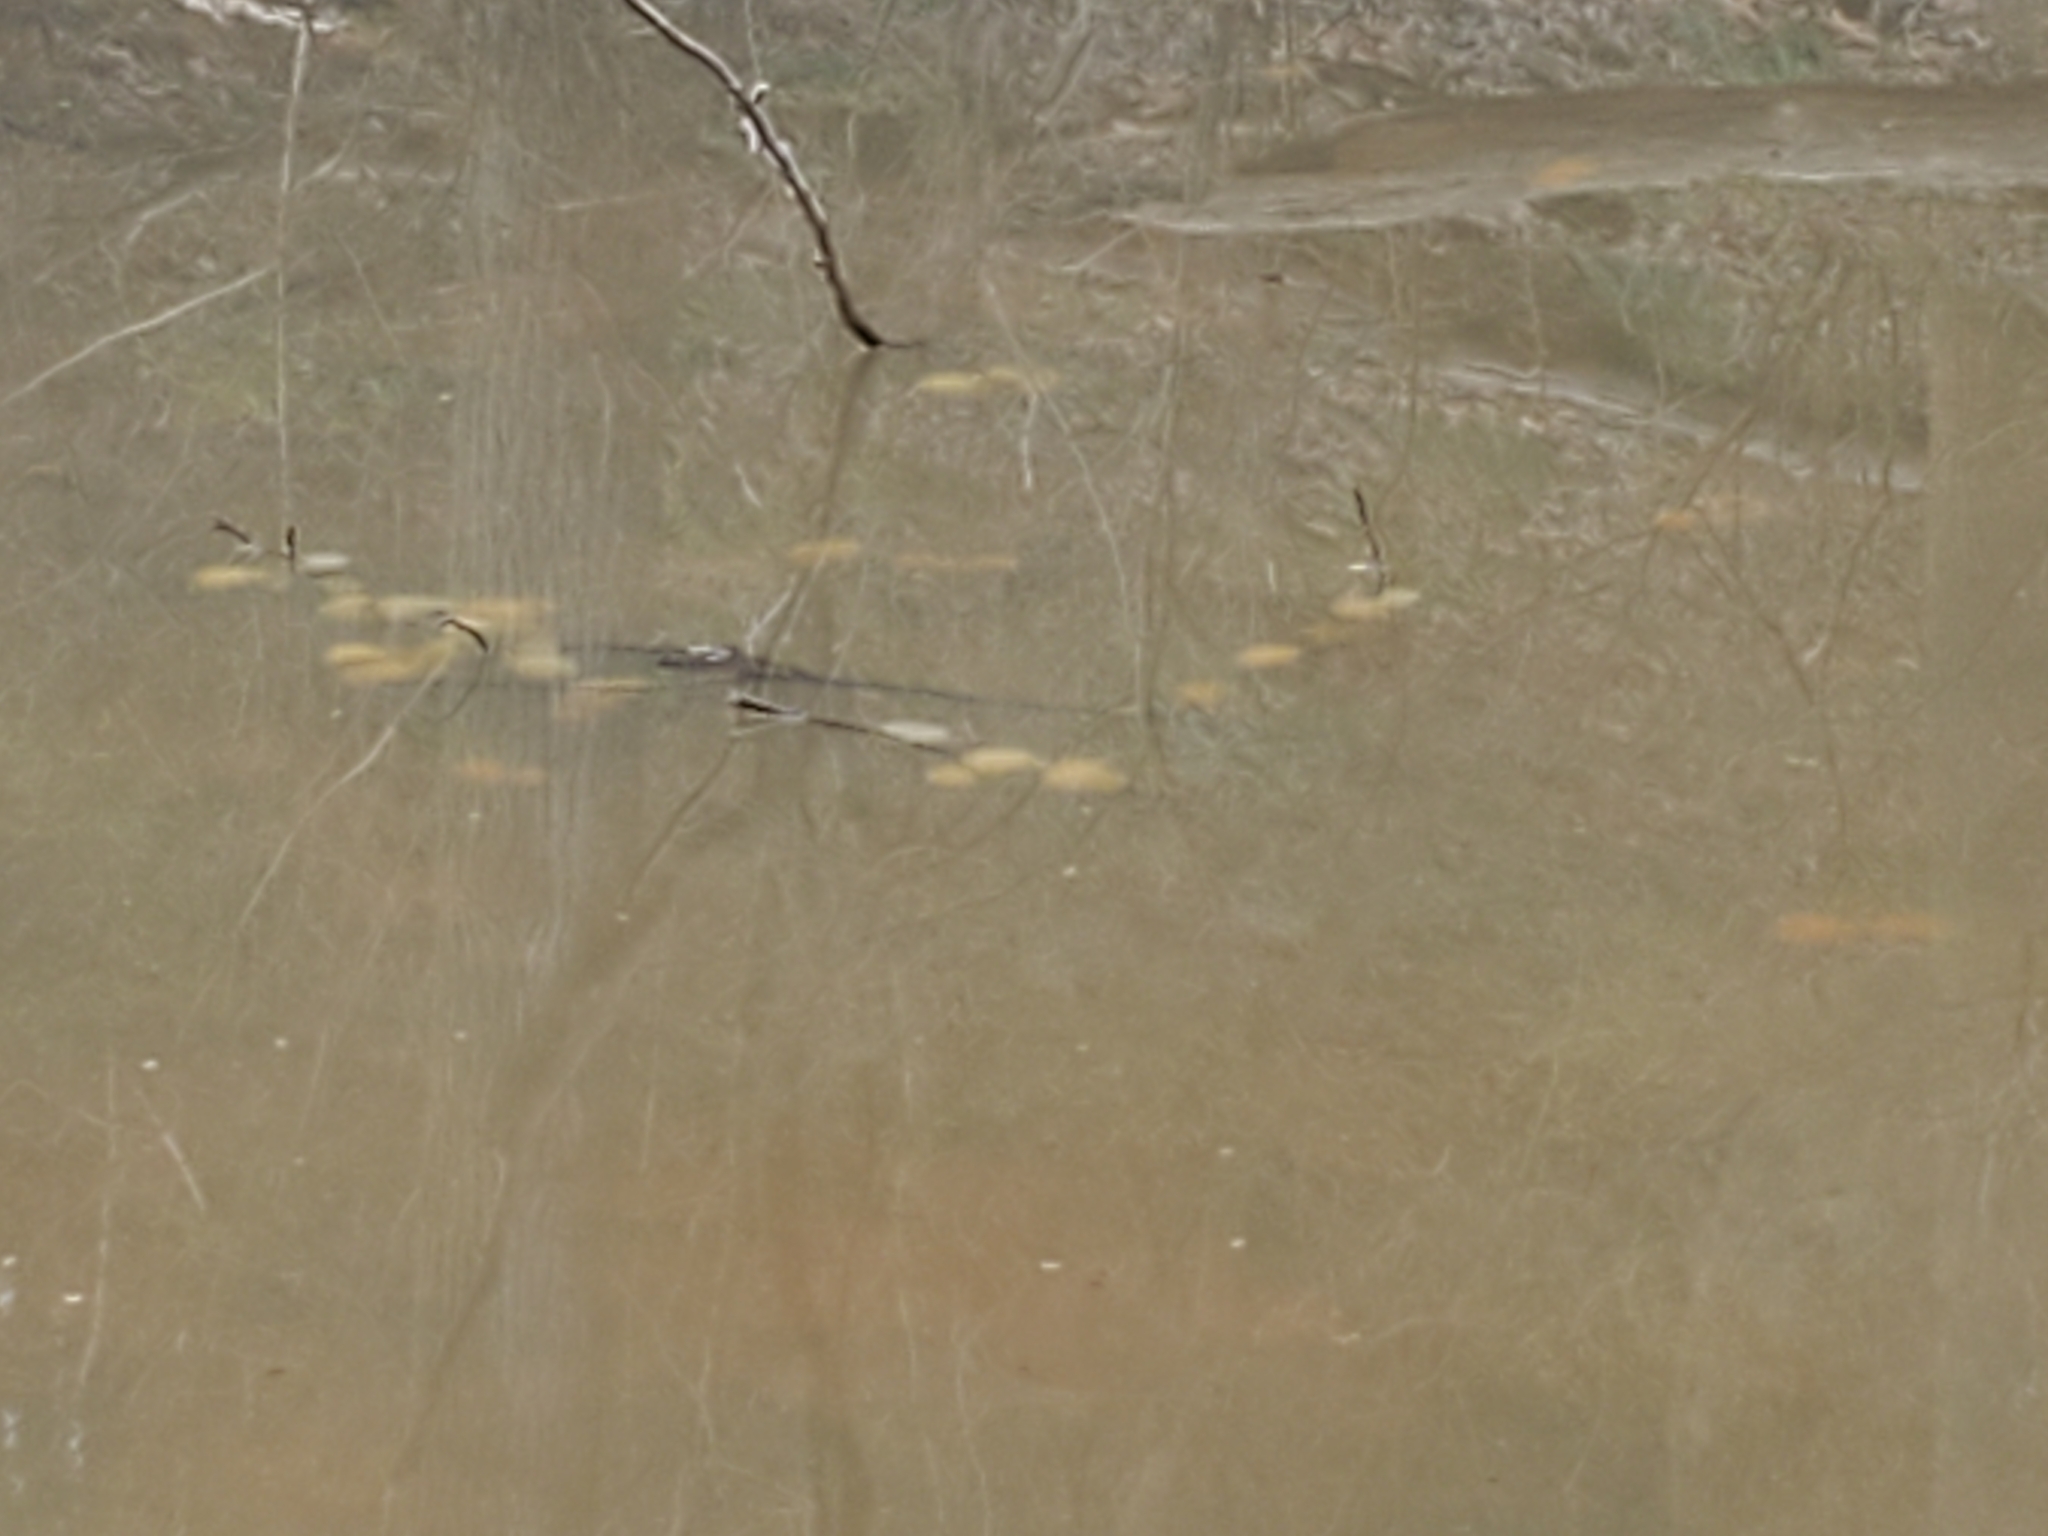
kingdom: Animalia
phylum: Chordata
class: Amphibia
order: Caudata
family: Ambystomatidae
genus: Ambystoma
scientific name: Ambystoma maculatum
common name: Spotted salamander
